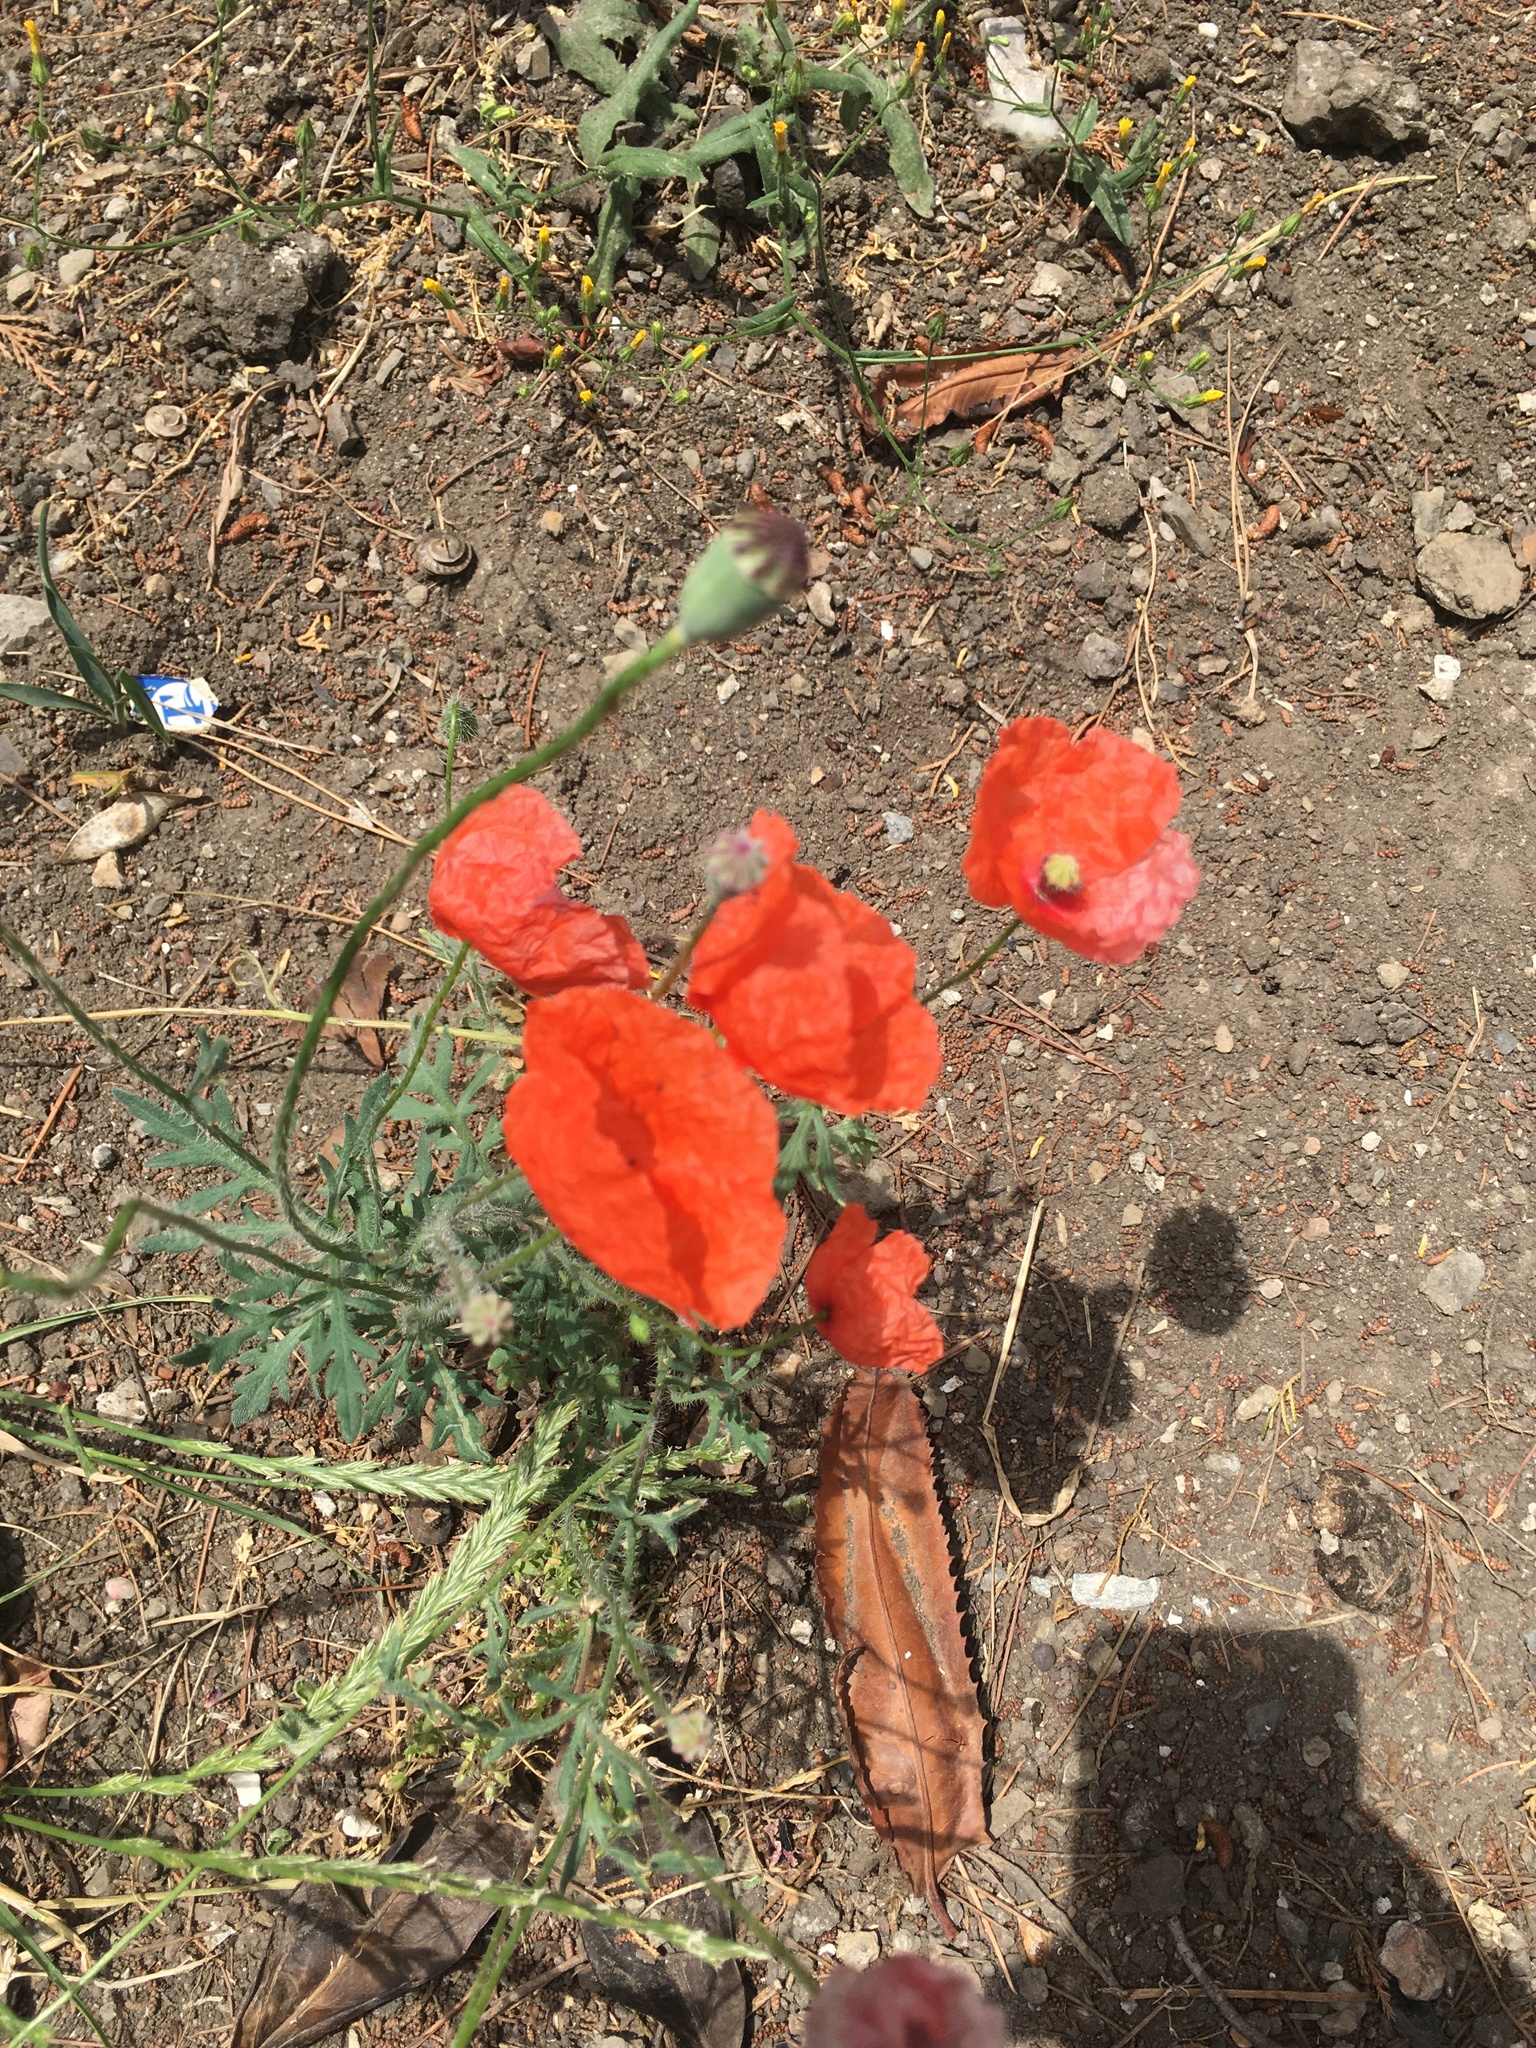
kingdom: Plantae
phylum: Tracheophyta
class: Magnoliopsida
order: Ranunculales
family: Papaveraceae
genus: Papaver
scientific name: Papaver rhoeas
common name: Corn poppy
